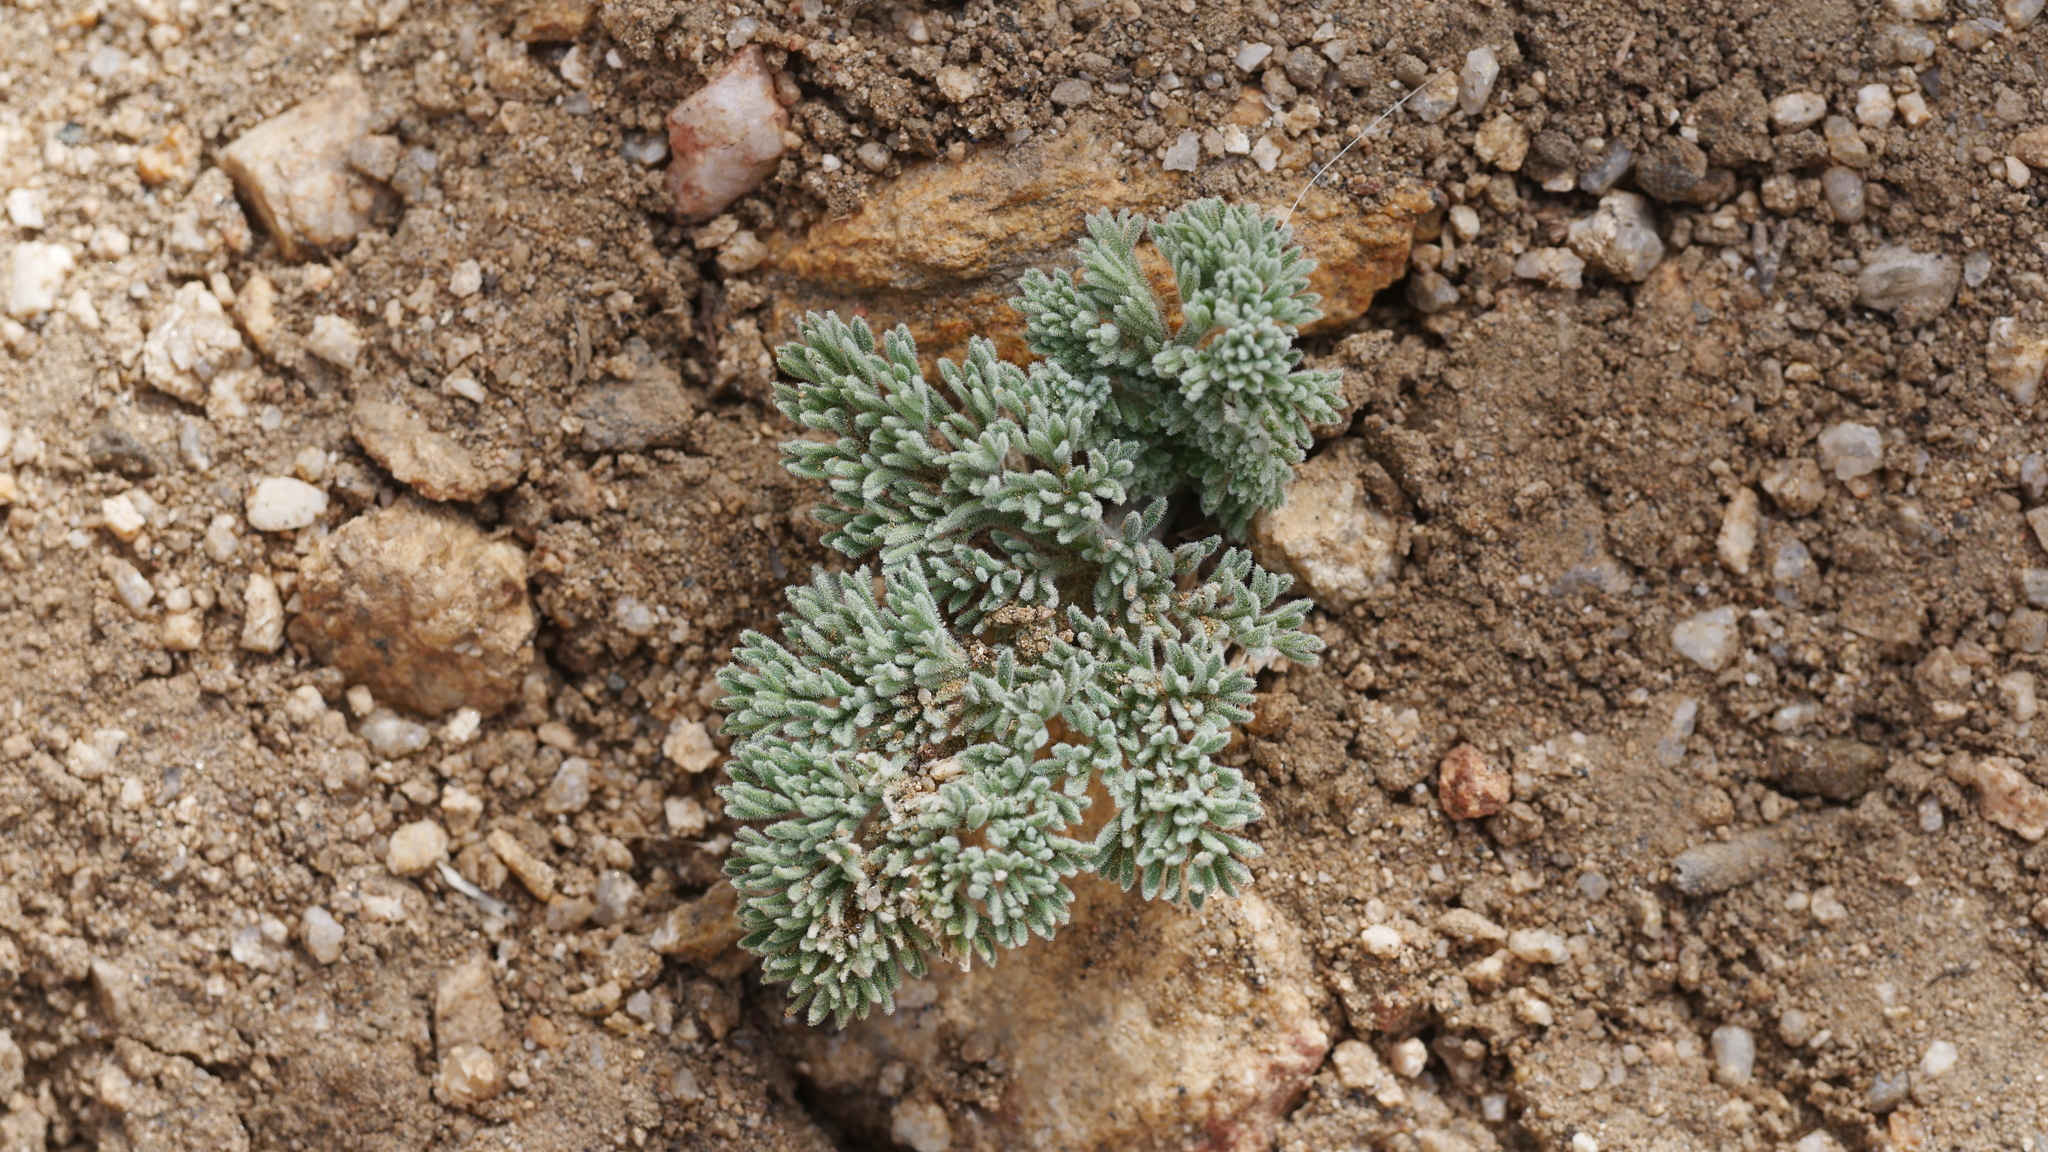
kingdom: Plantae
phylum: Tracheophyta
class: Magnoliopsida
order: Apiales
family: Apiaceae
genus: Lomatium
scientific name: Lomatium mohavense
